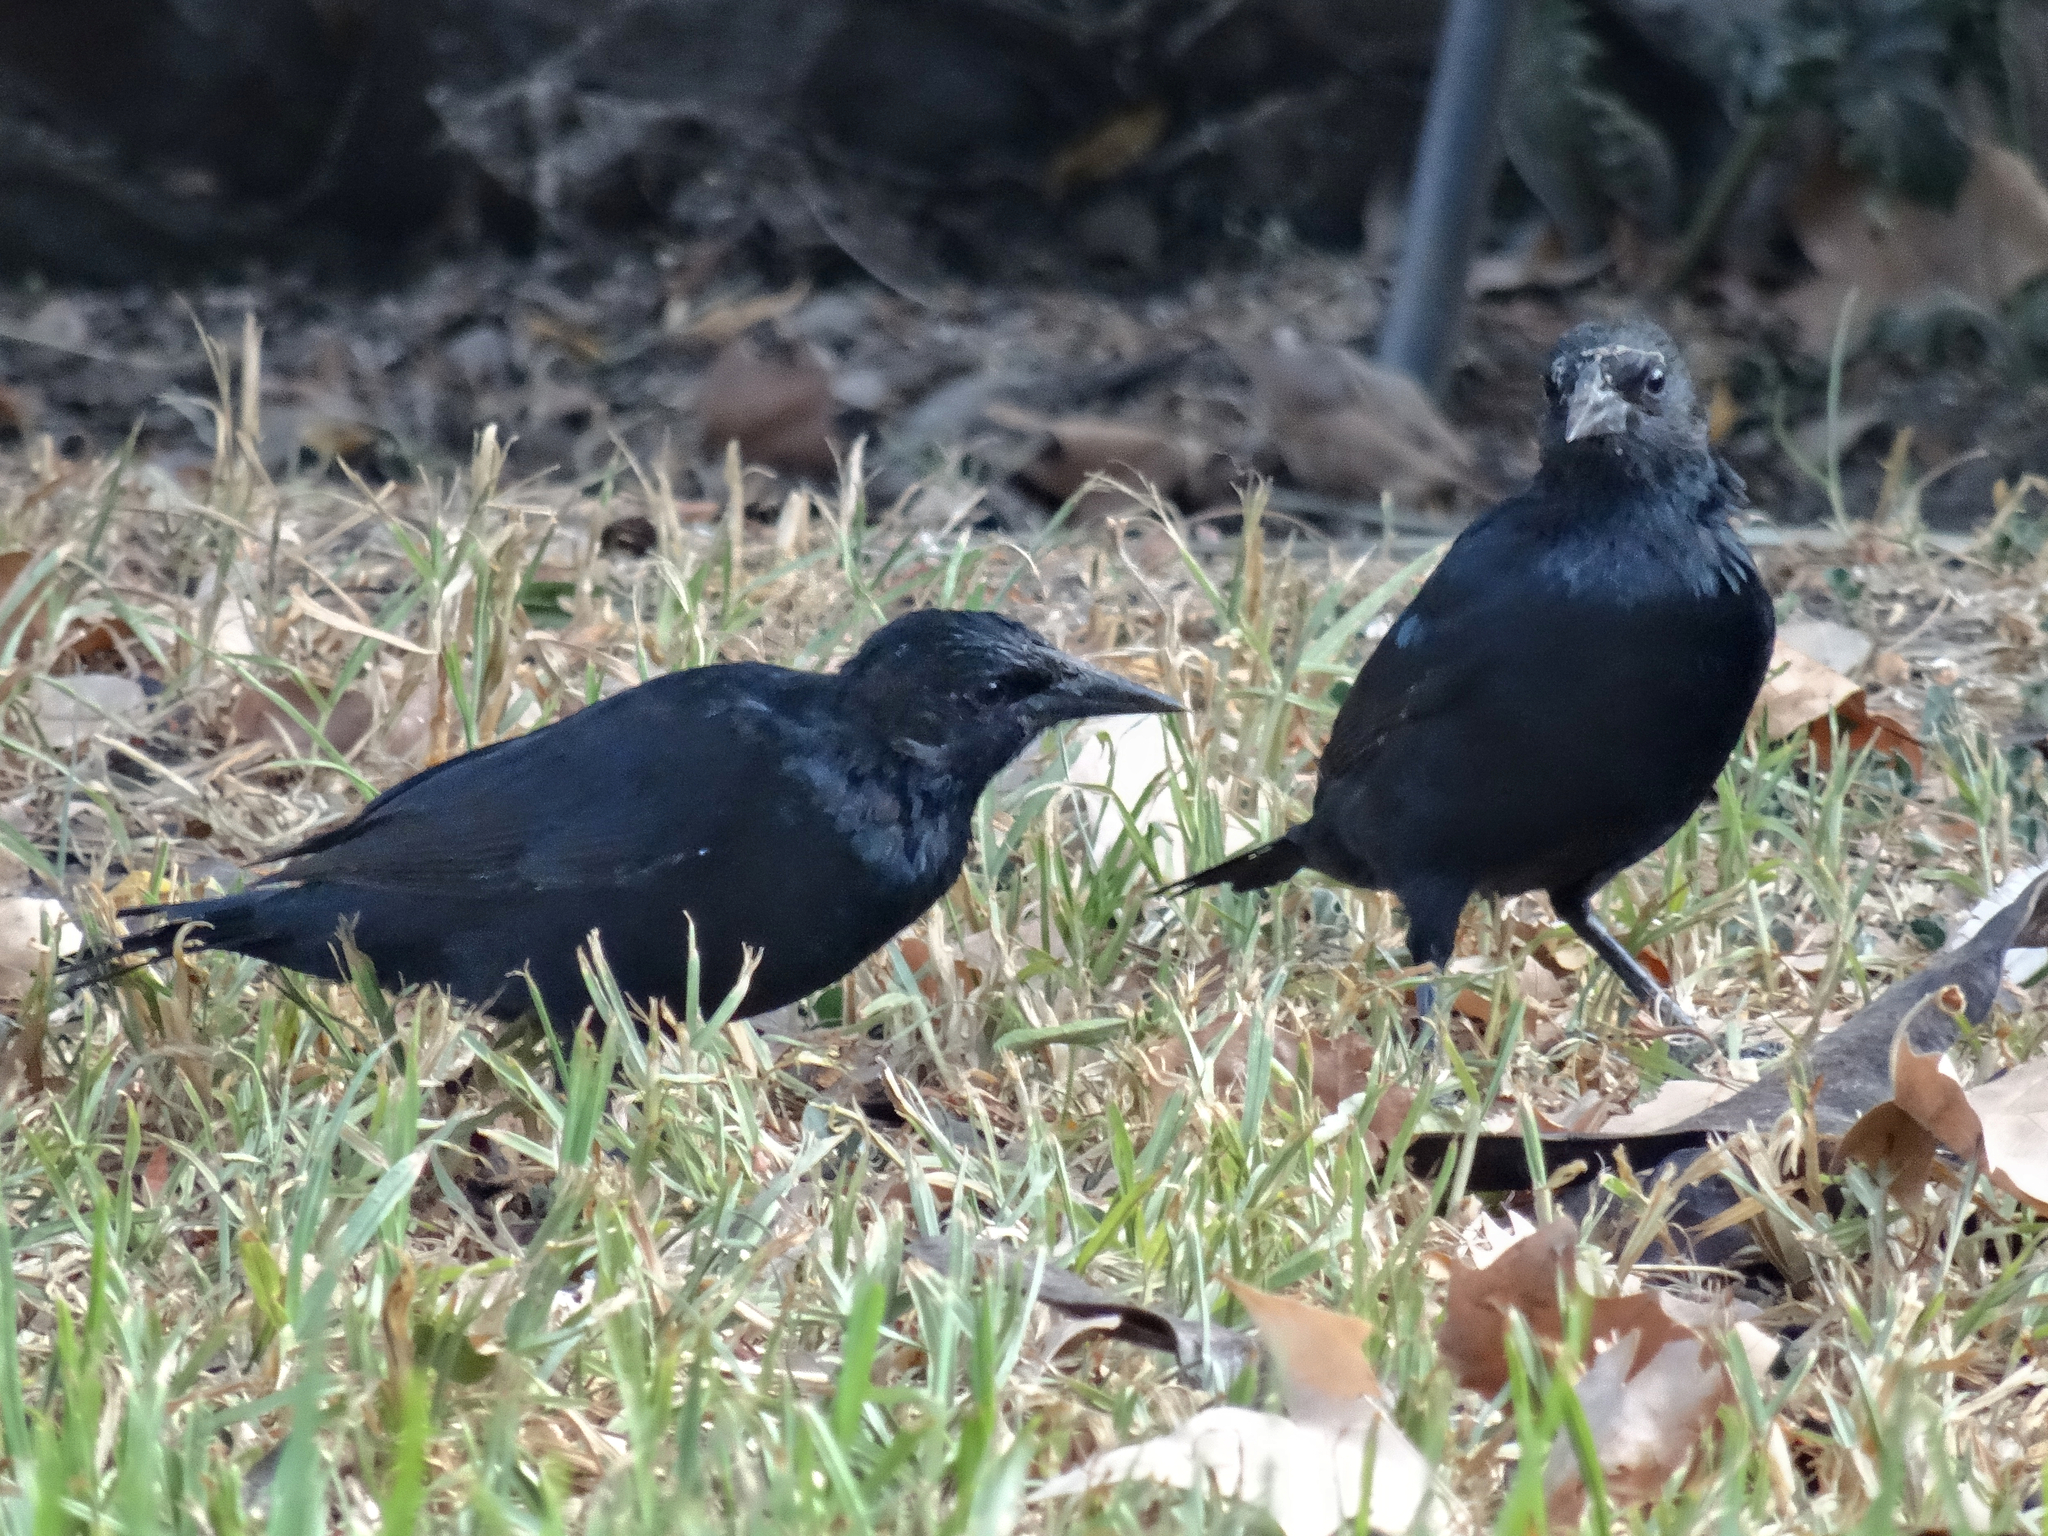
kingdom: Animalia
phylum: Chordata
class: Aves
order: Passeriformes
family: Icteridae
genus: Curaeus
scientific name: Curaeus curaeus
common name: Austral blackbird
